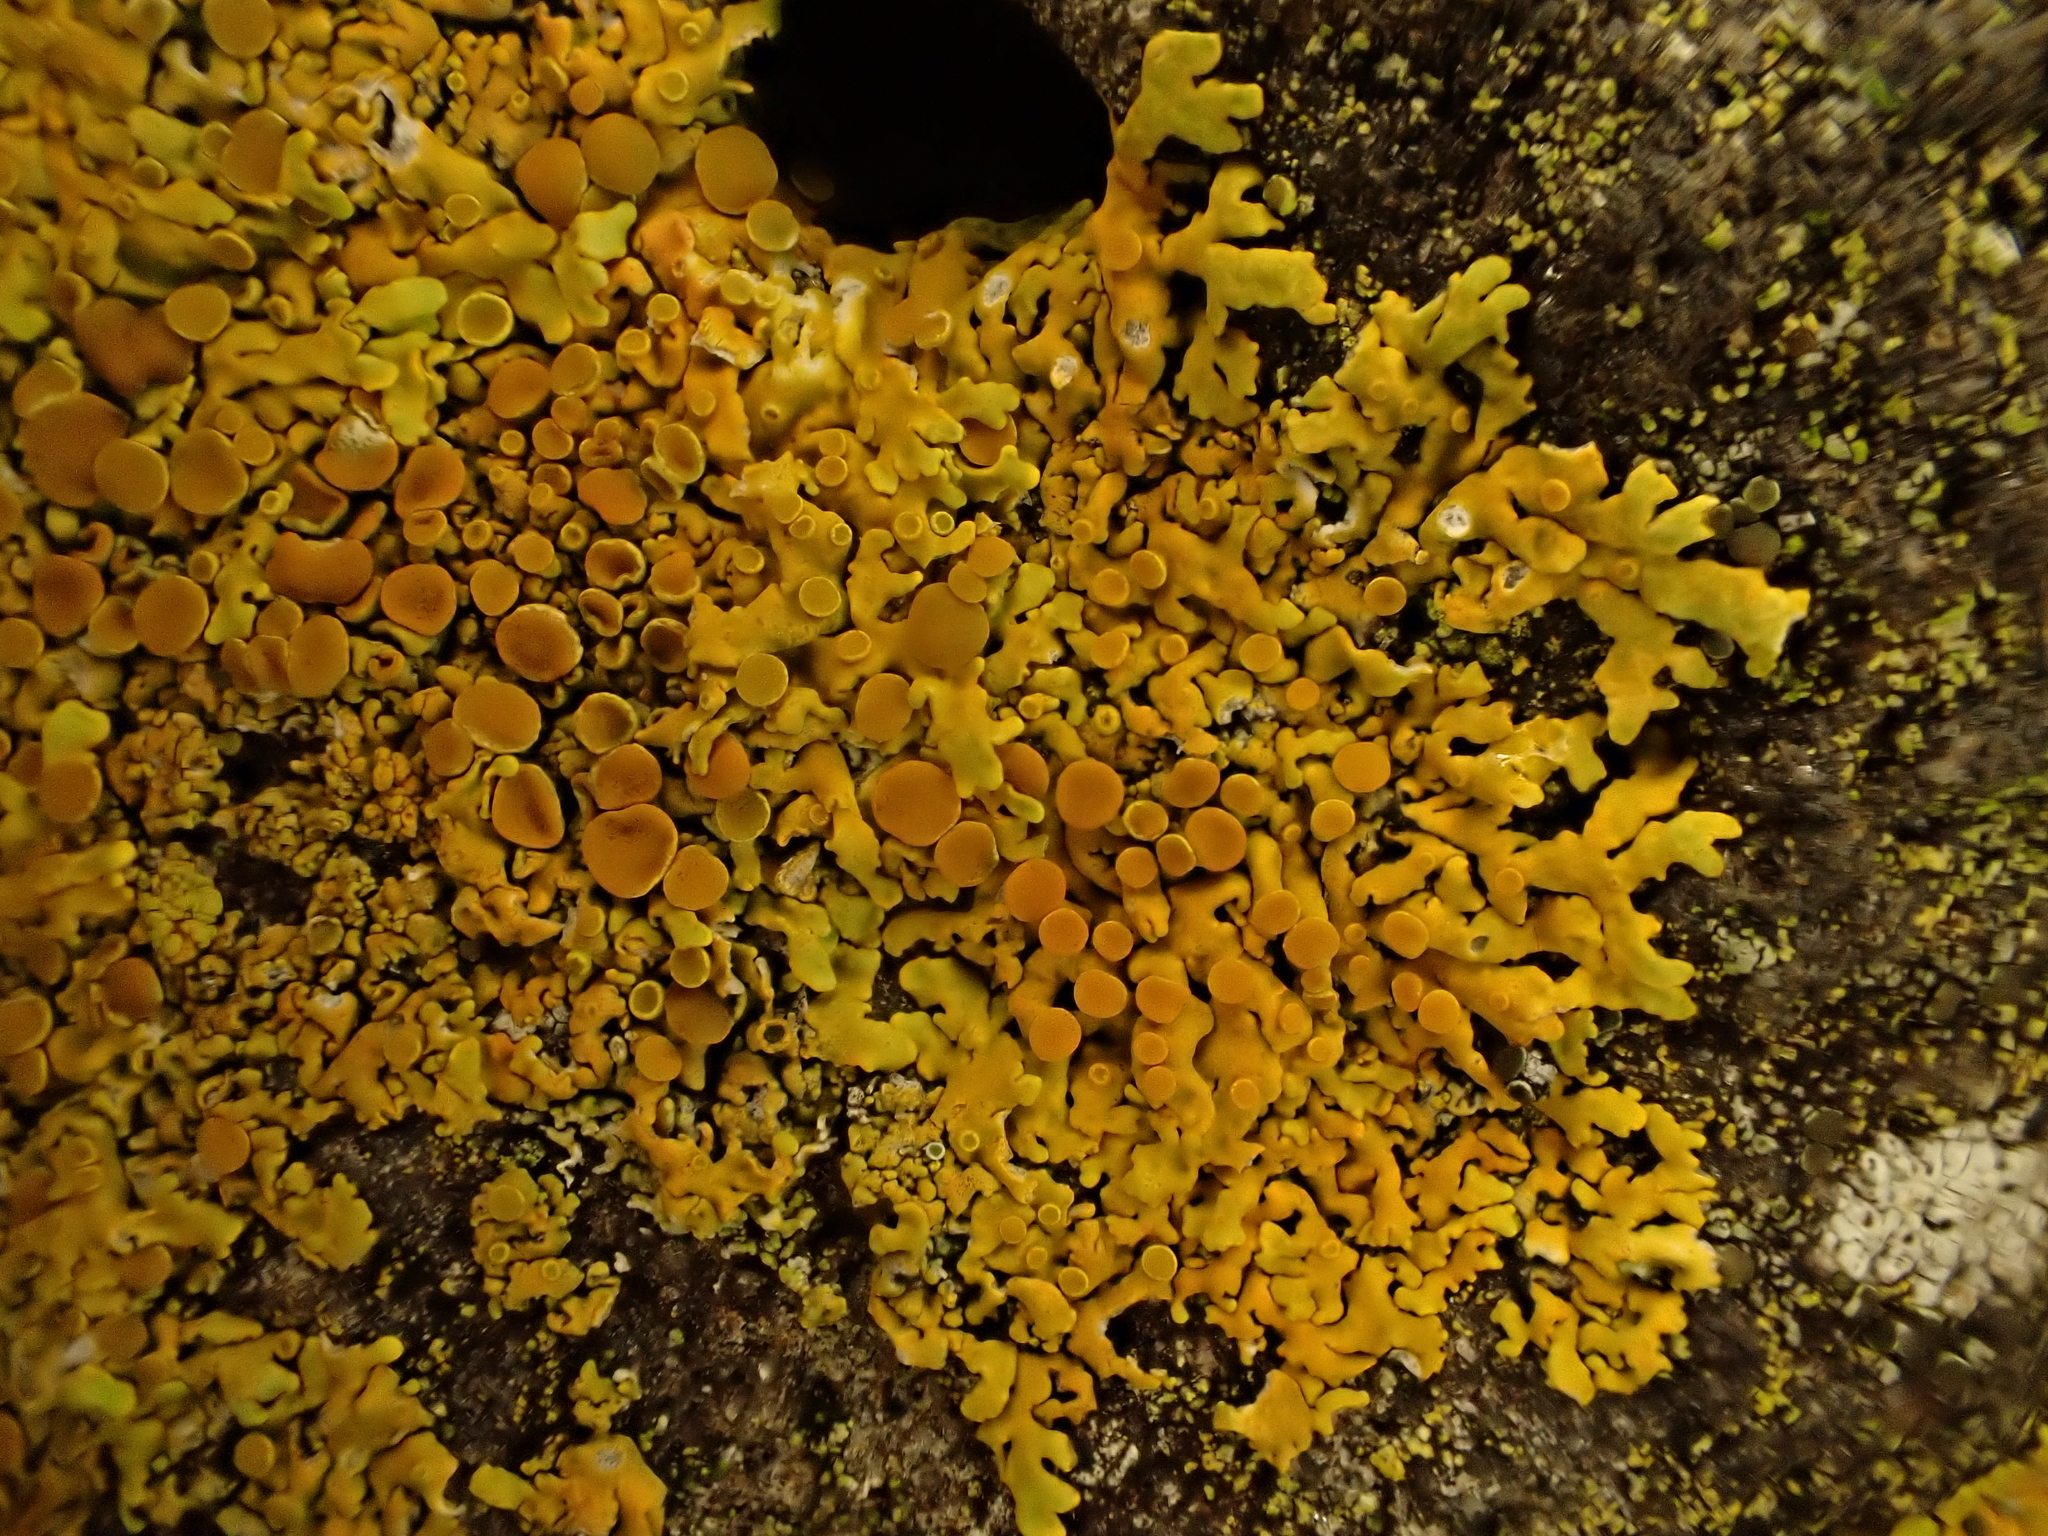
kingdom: Fungi
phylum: Ascomycota
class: Lecanoromycetes
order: Teloschistales
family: Teloschistaceae
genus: Dufourea
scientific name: Dufourea ligulata
